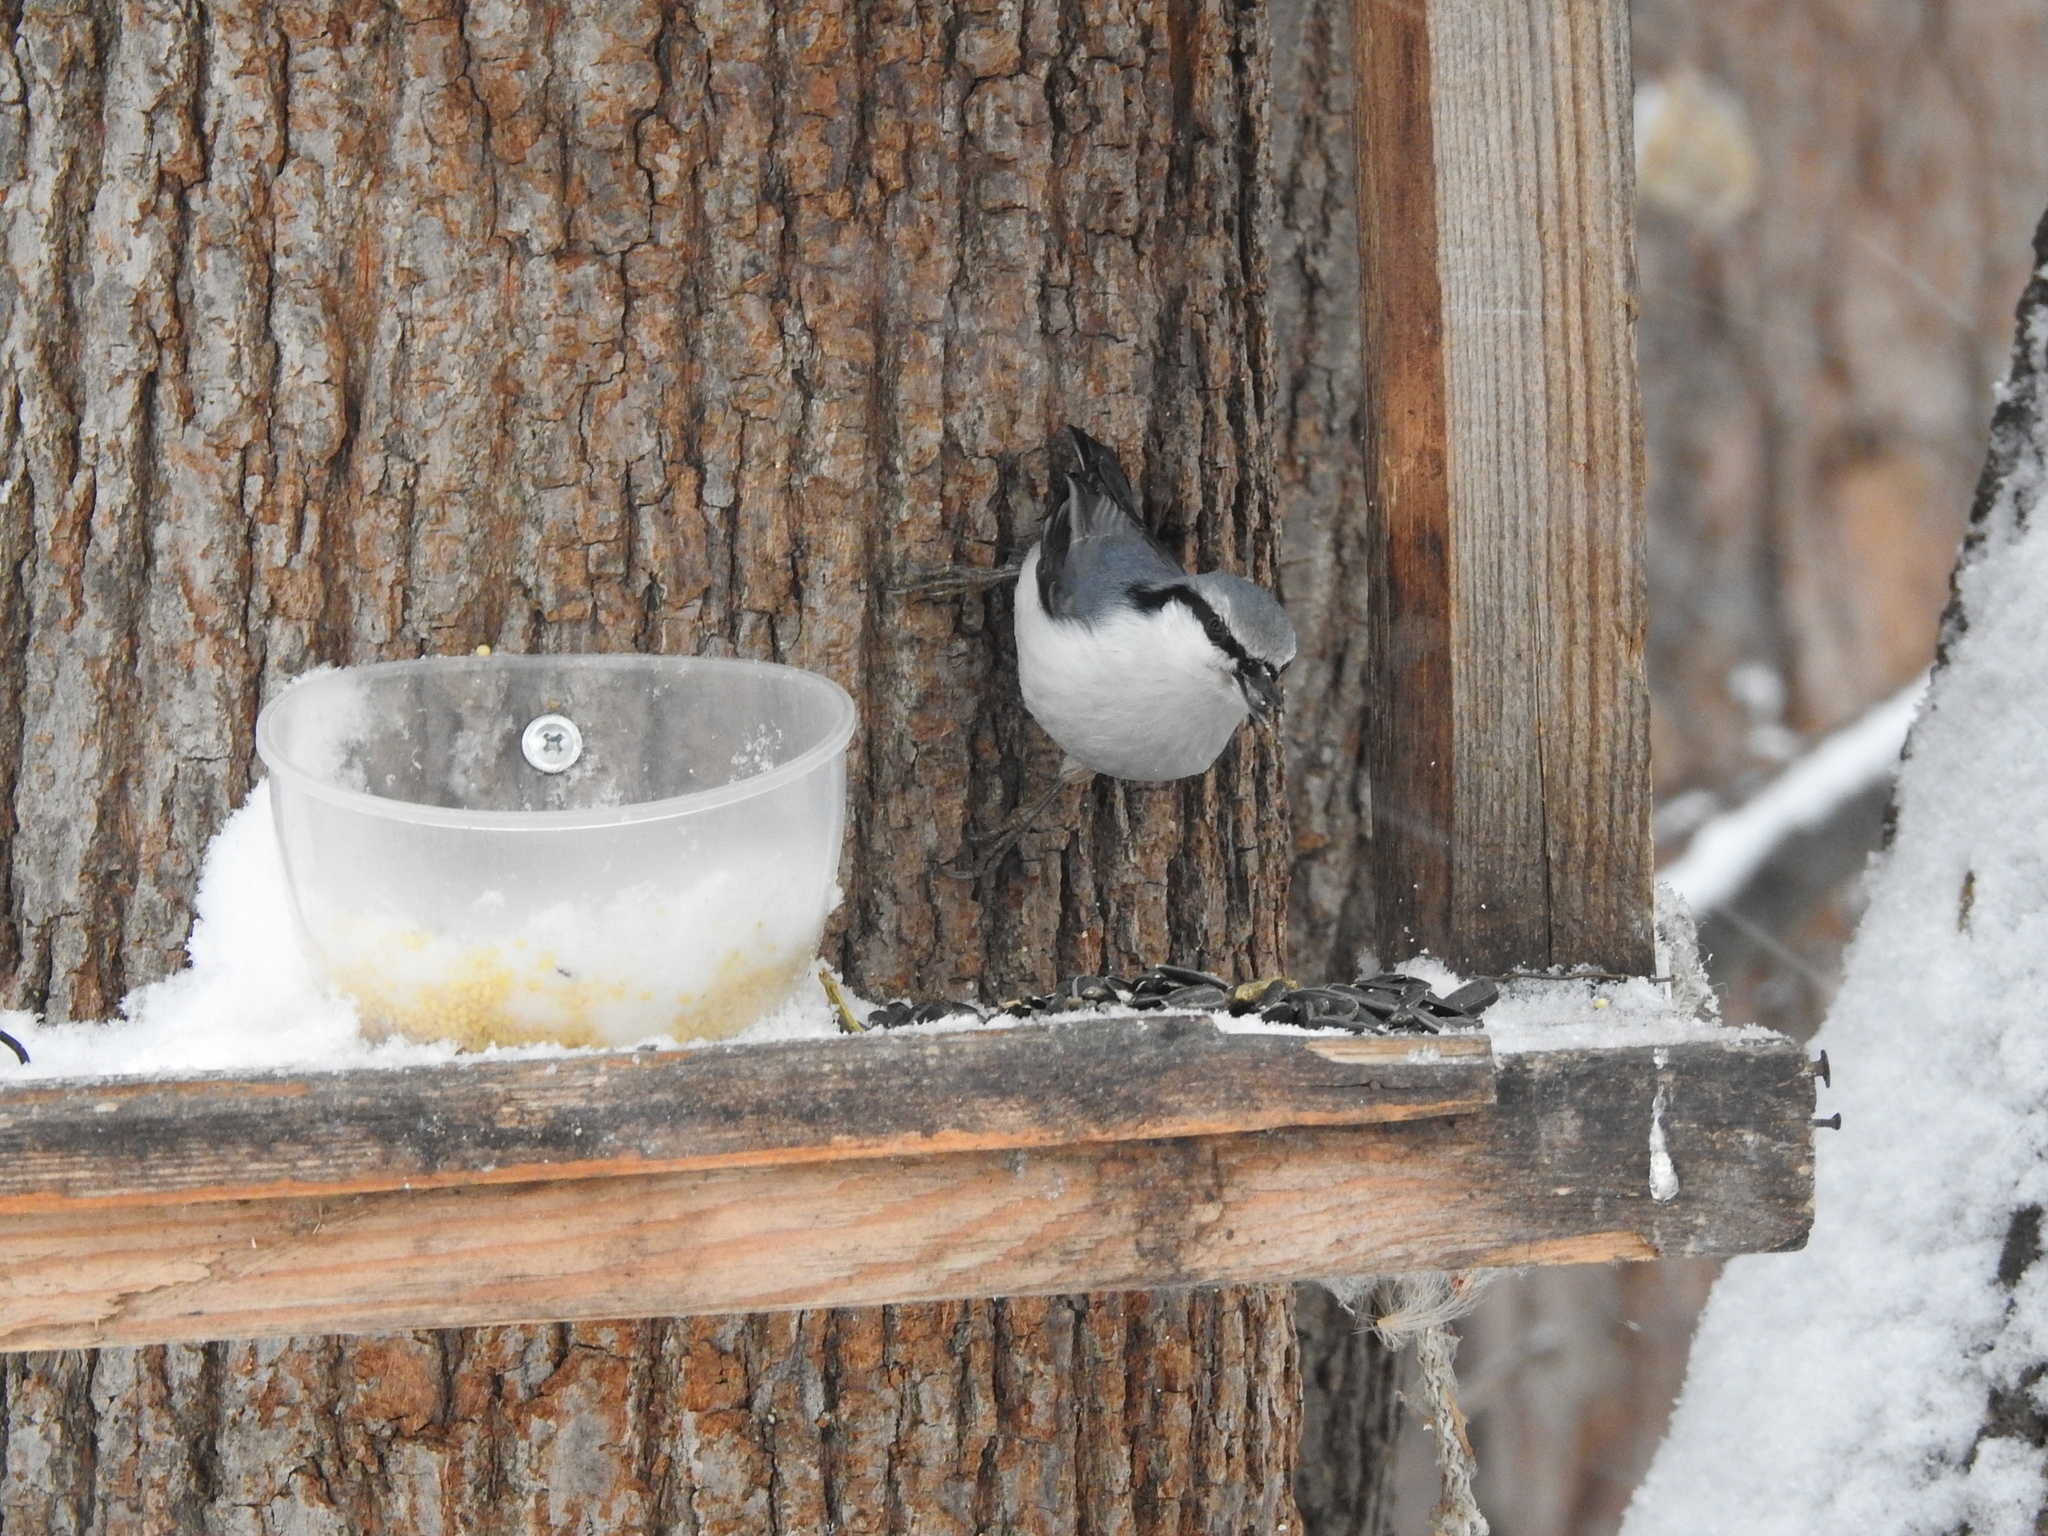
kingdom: Animalia
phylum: Chordata
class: Aves
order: Passeriformes
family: Sittidae
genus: Sitta
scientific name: Sitta europaea
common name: Eurasian nuthatch
